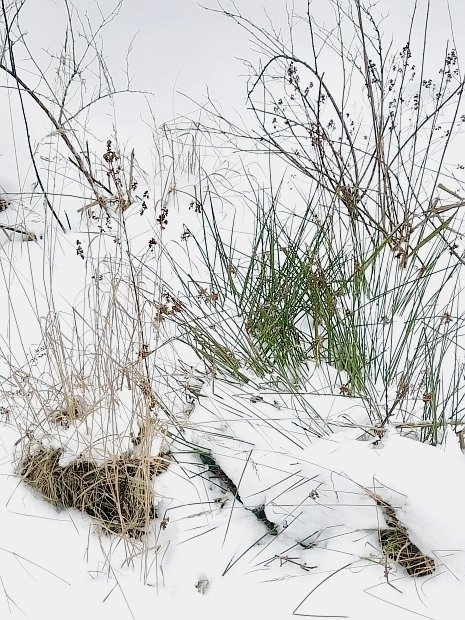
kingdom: Plantae
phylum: Tracheophyta
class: Liliopsida
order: Poales
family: Juncaceae
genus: Juncus
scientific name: Juncus effusus
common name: Soft rush
